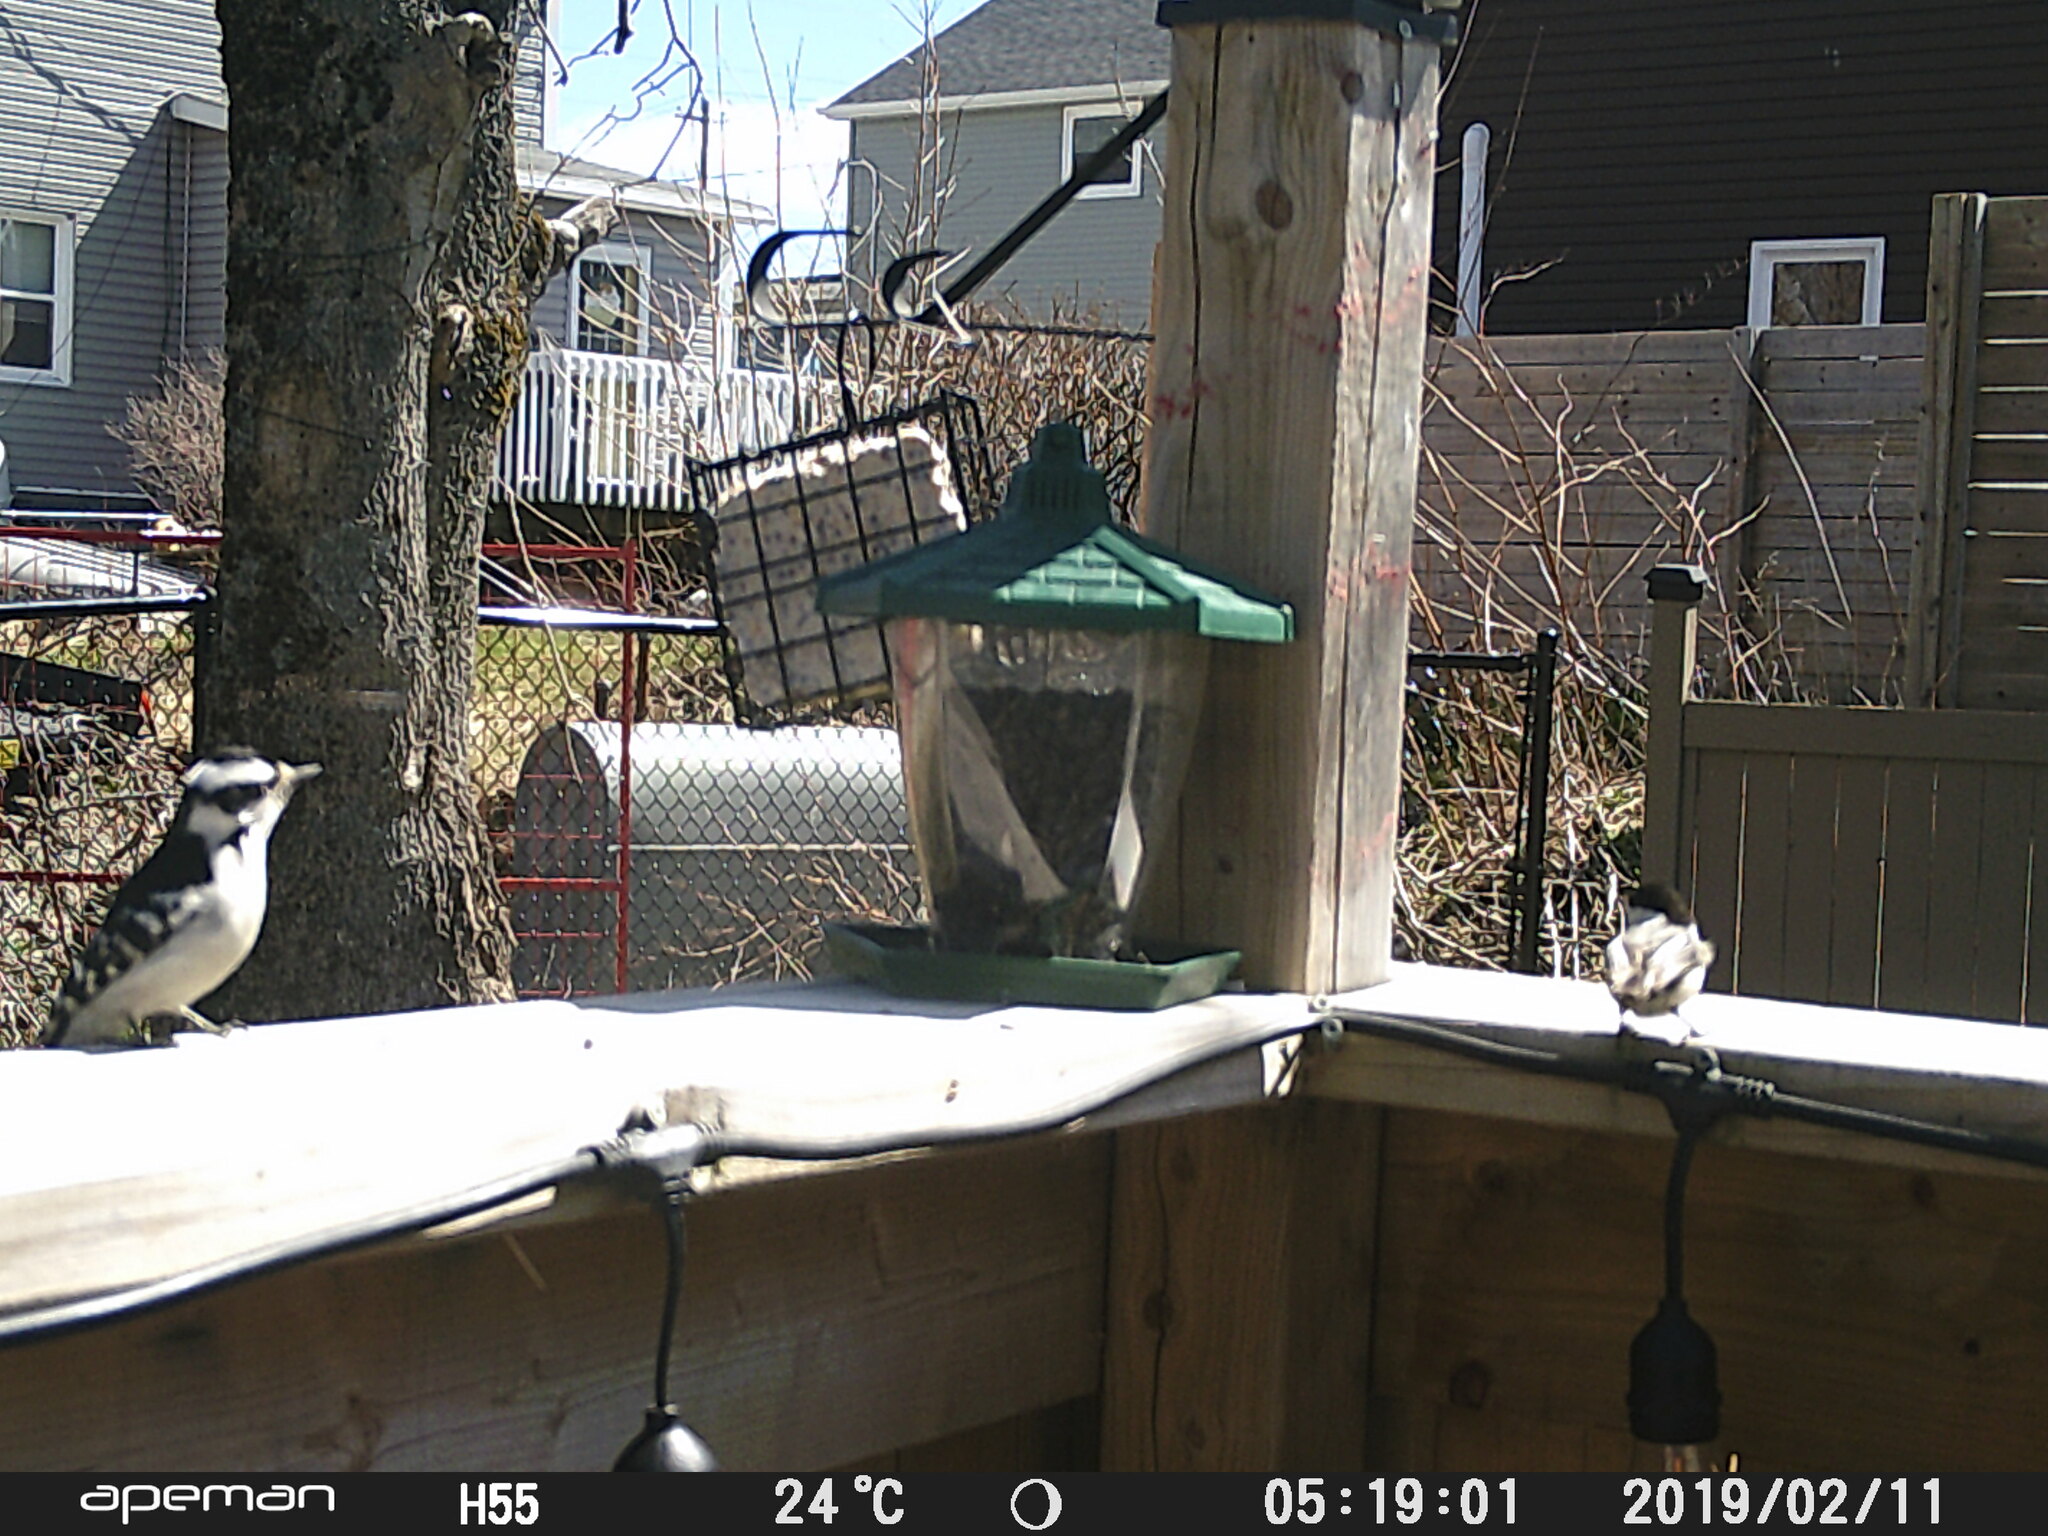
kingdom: Animalia
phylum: Chordata
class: Aves
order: Piciformes
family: Picidae
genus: Dryobates
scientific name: Dryobates pubescens
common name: Downy woodpecker
